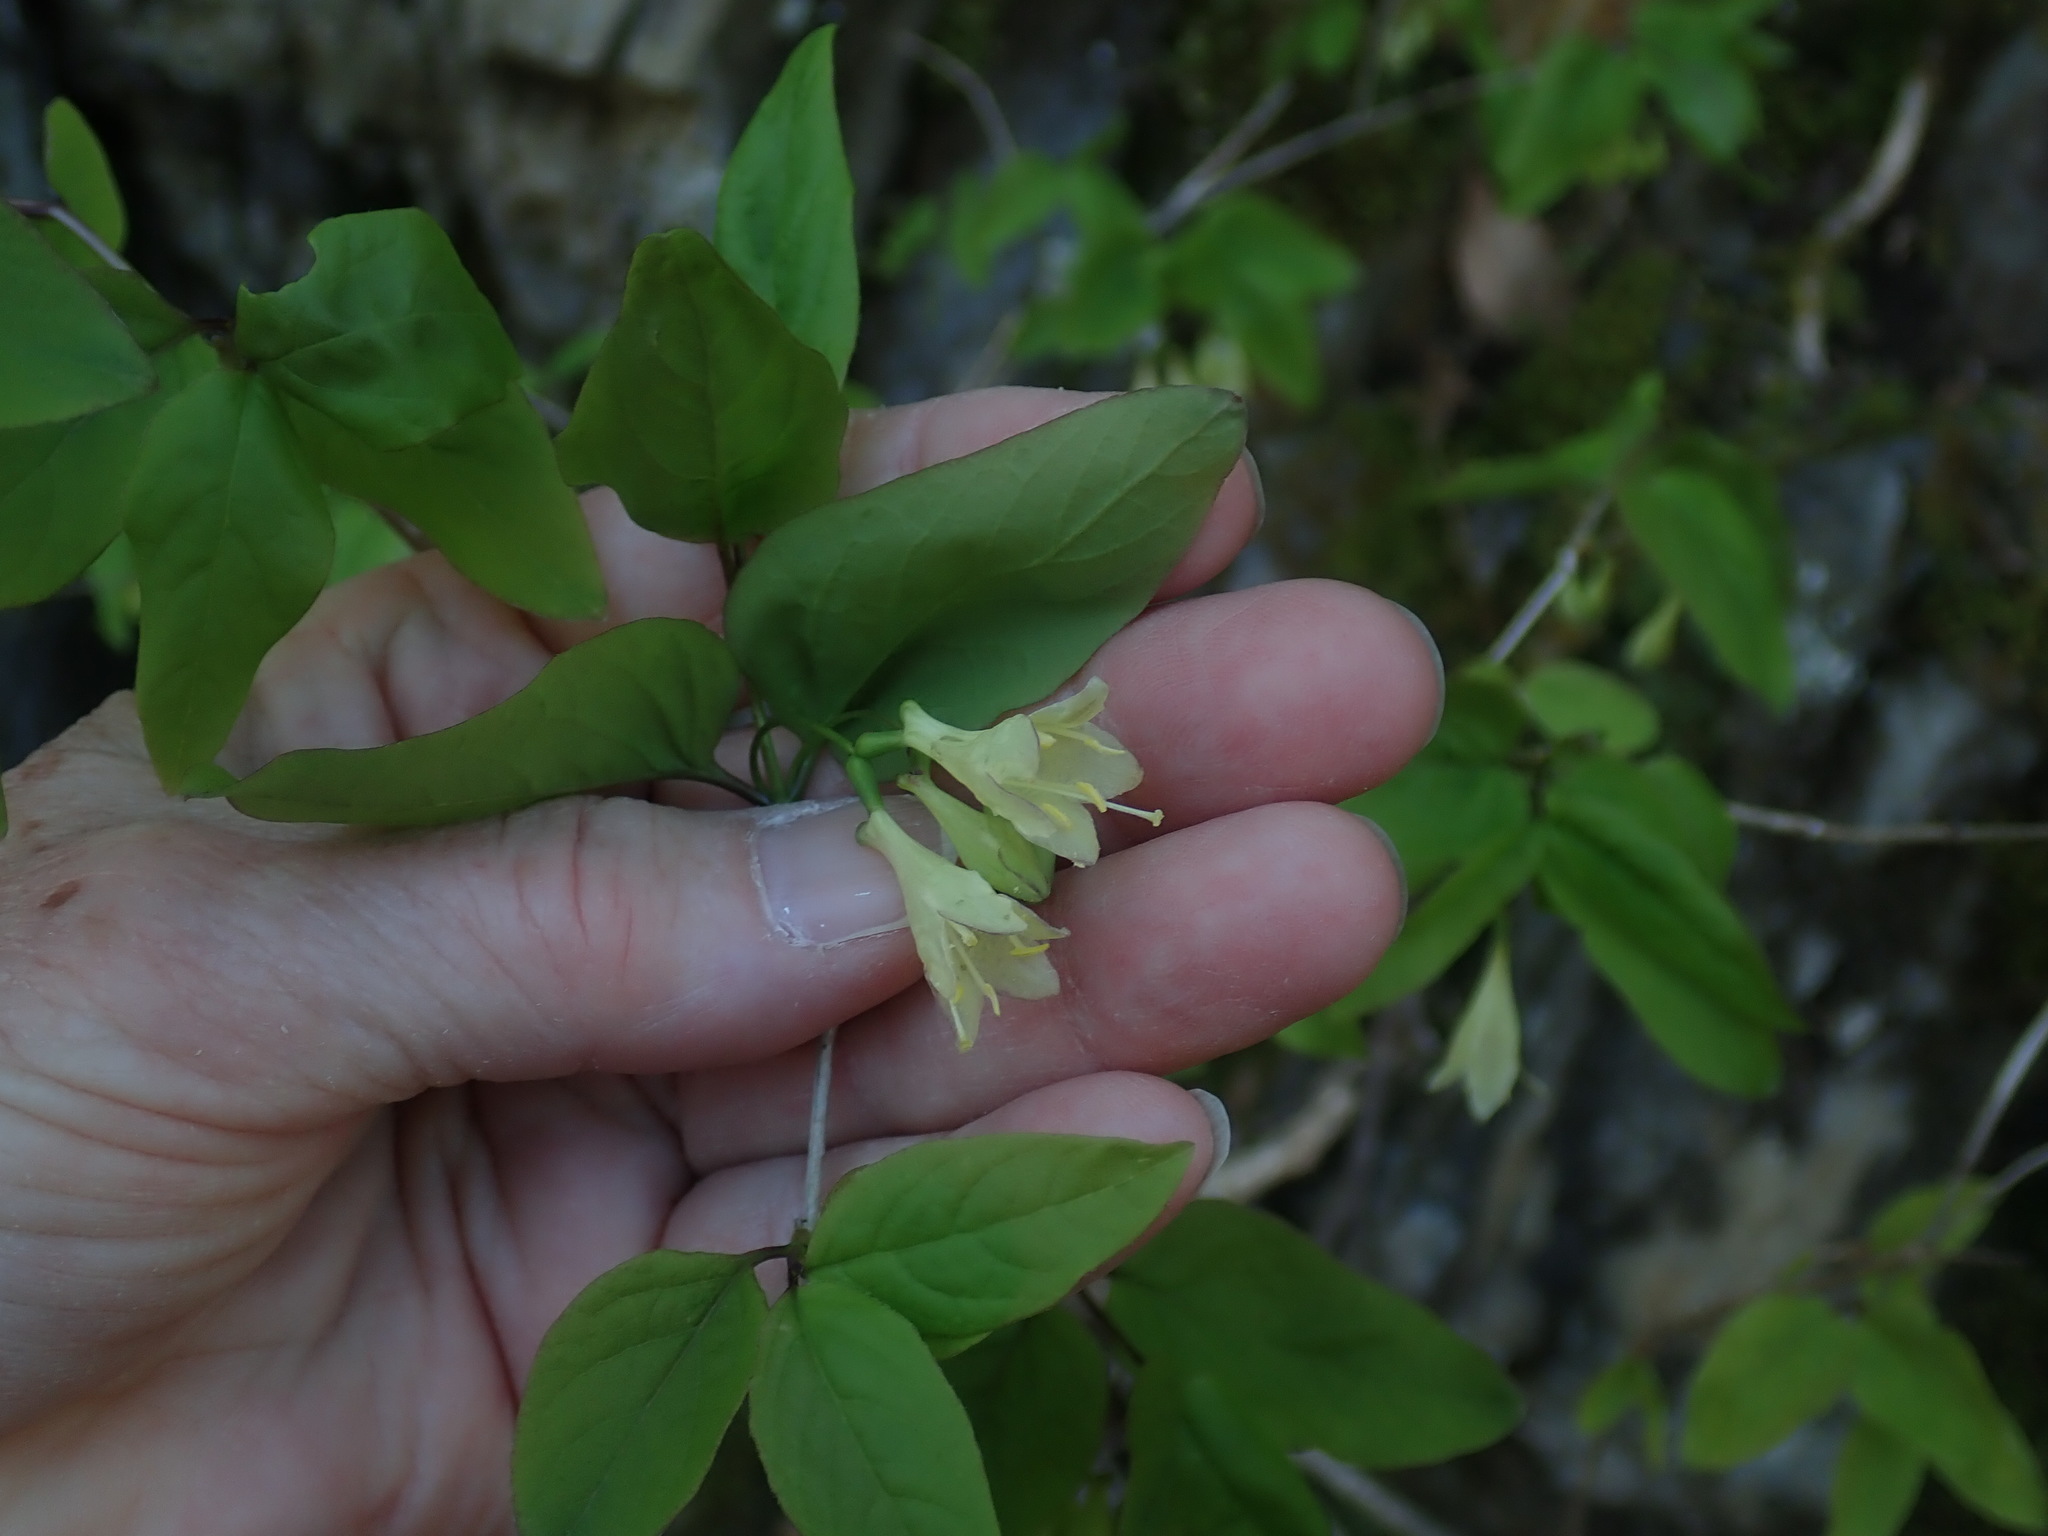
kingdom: Plantae
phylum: Tracheophyta
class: Magnoliopsida
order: Dipsacales
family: Caprifoliaceae
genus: Lonicera
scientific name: Lonicera canadensis
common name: American fly-honeysuckle
